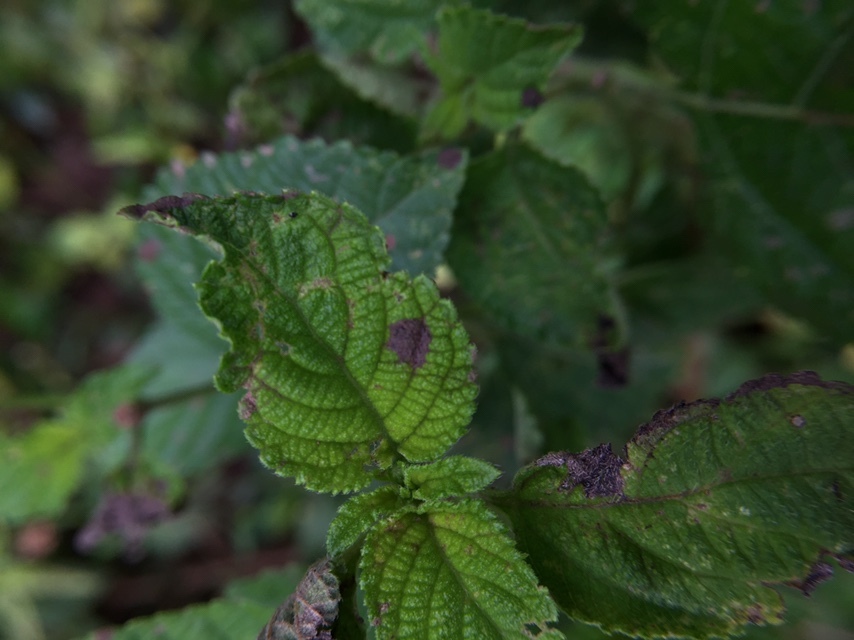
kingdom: Fungi
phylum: Ascomycota
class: Dothideomycetes
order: Mycosphaerellales
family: Mycosphaerellaceae
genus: Pseudocercospora
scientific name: Pseudocercospora guianensis
